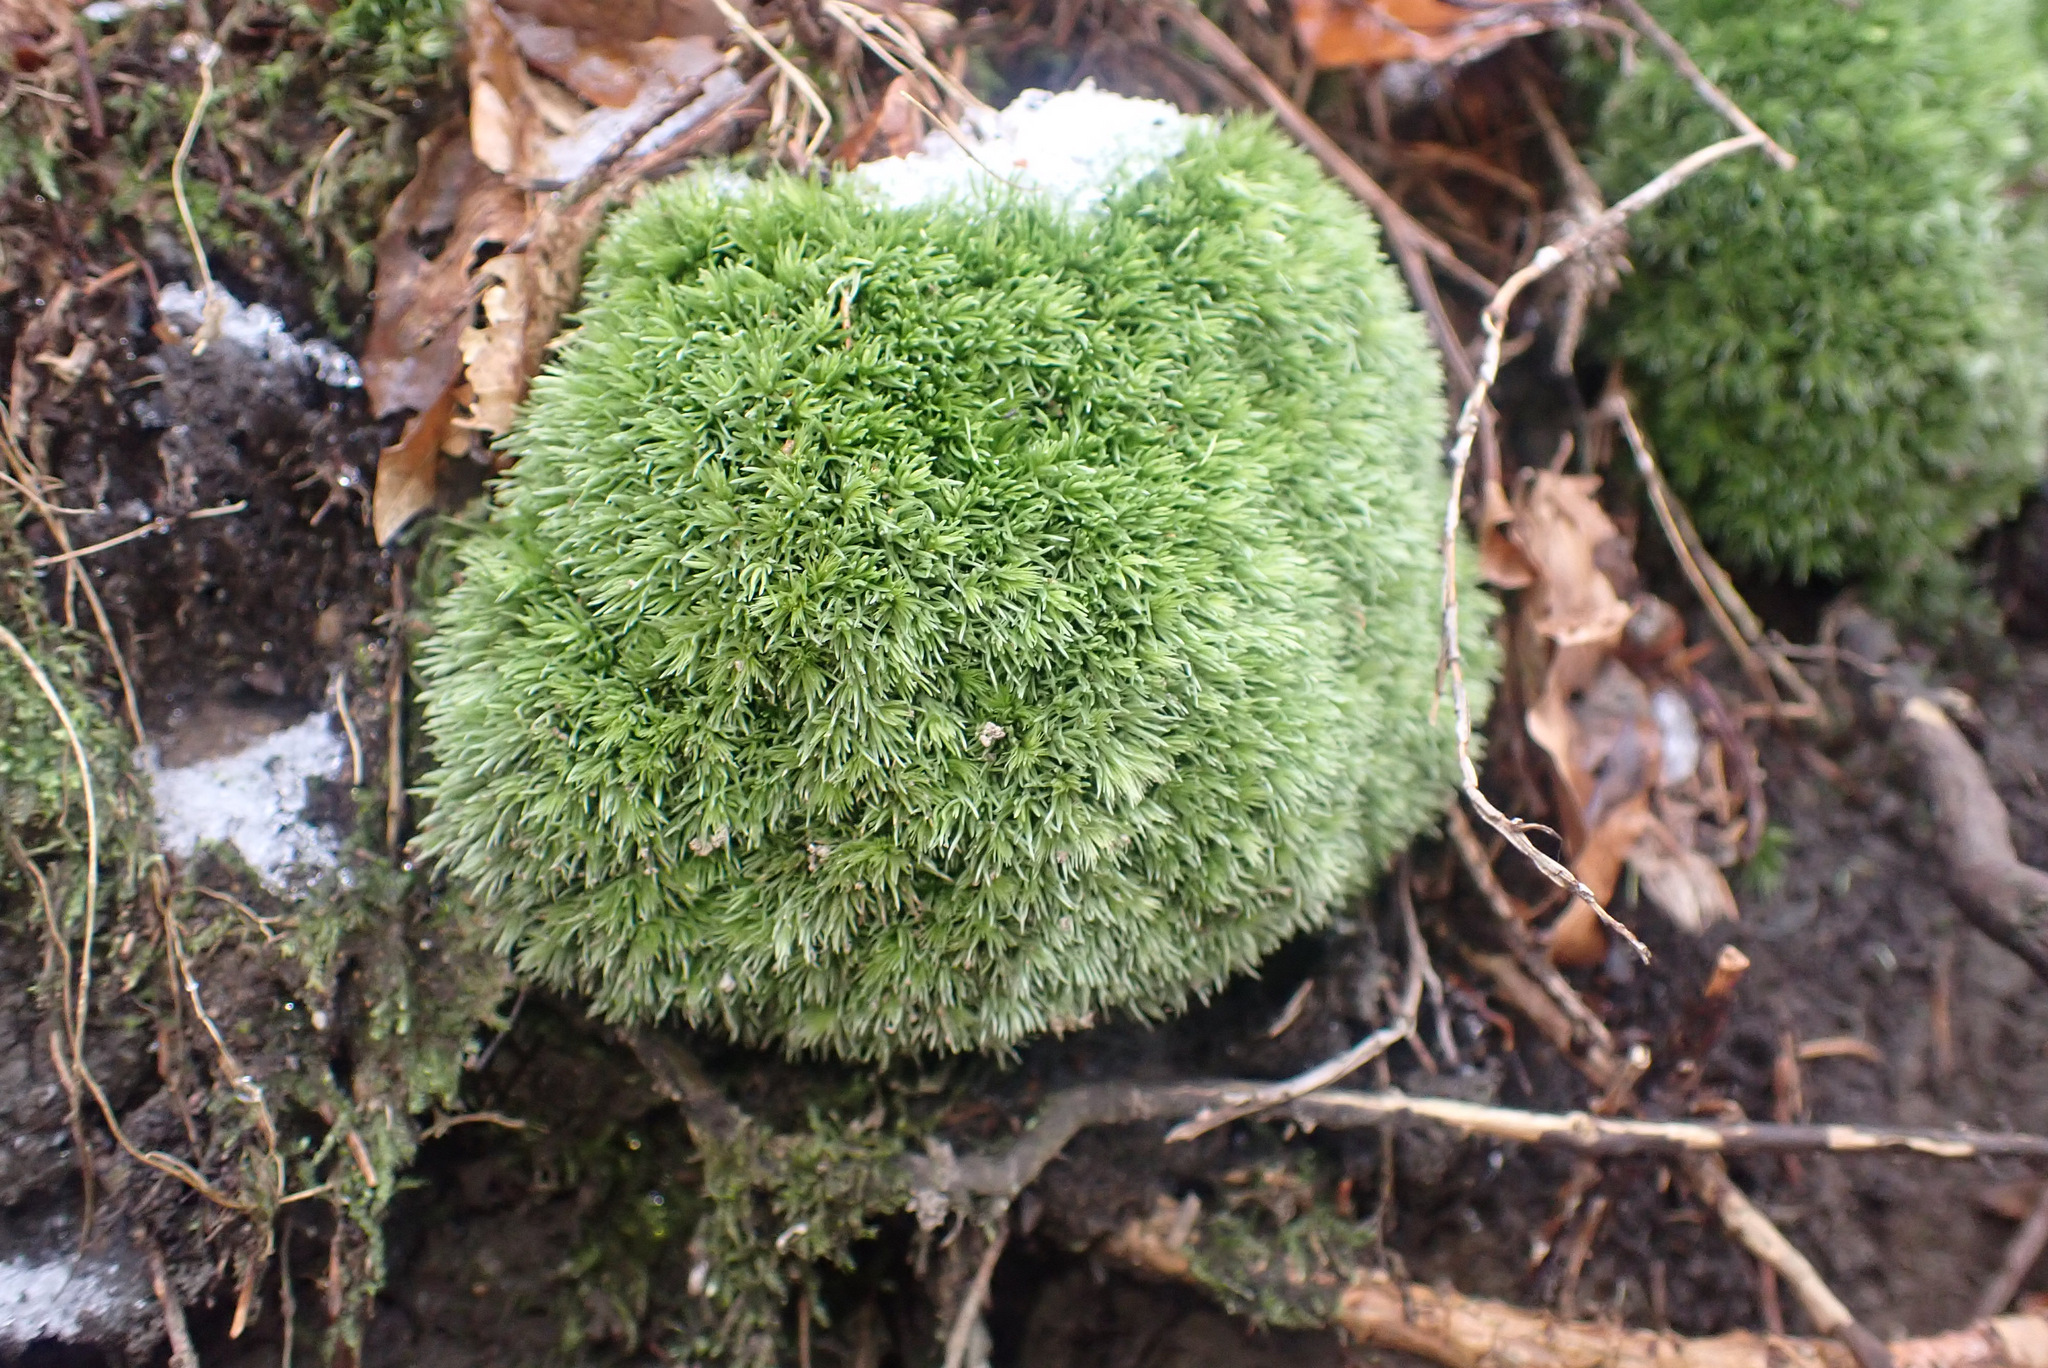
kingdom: Plantae
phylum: Bryophyta
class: Bryopsida
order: Dicranales
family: Leucobryaceae
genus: Leucobryum
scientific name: Leucobryum glaucum
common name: Large white-moss
